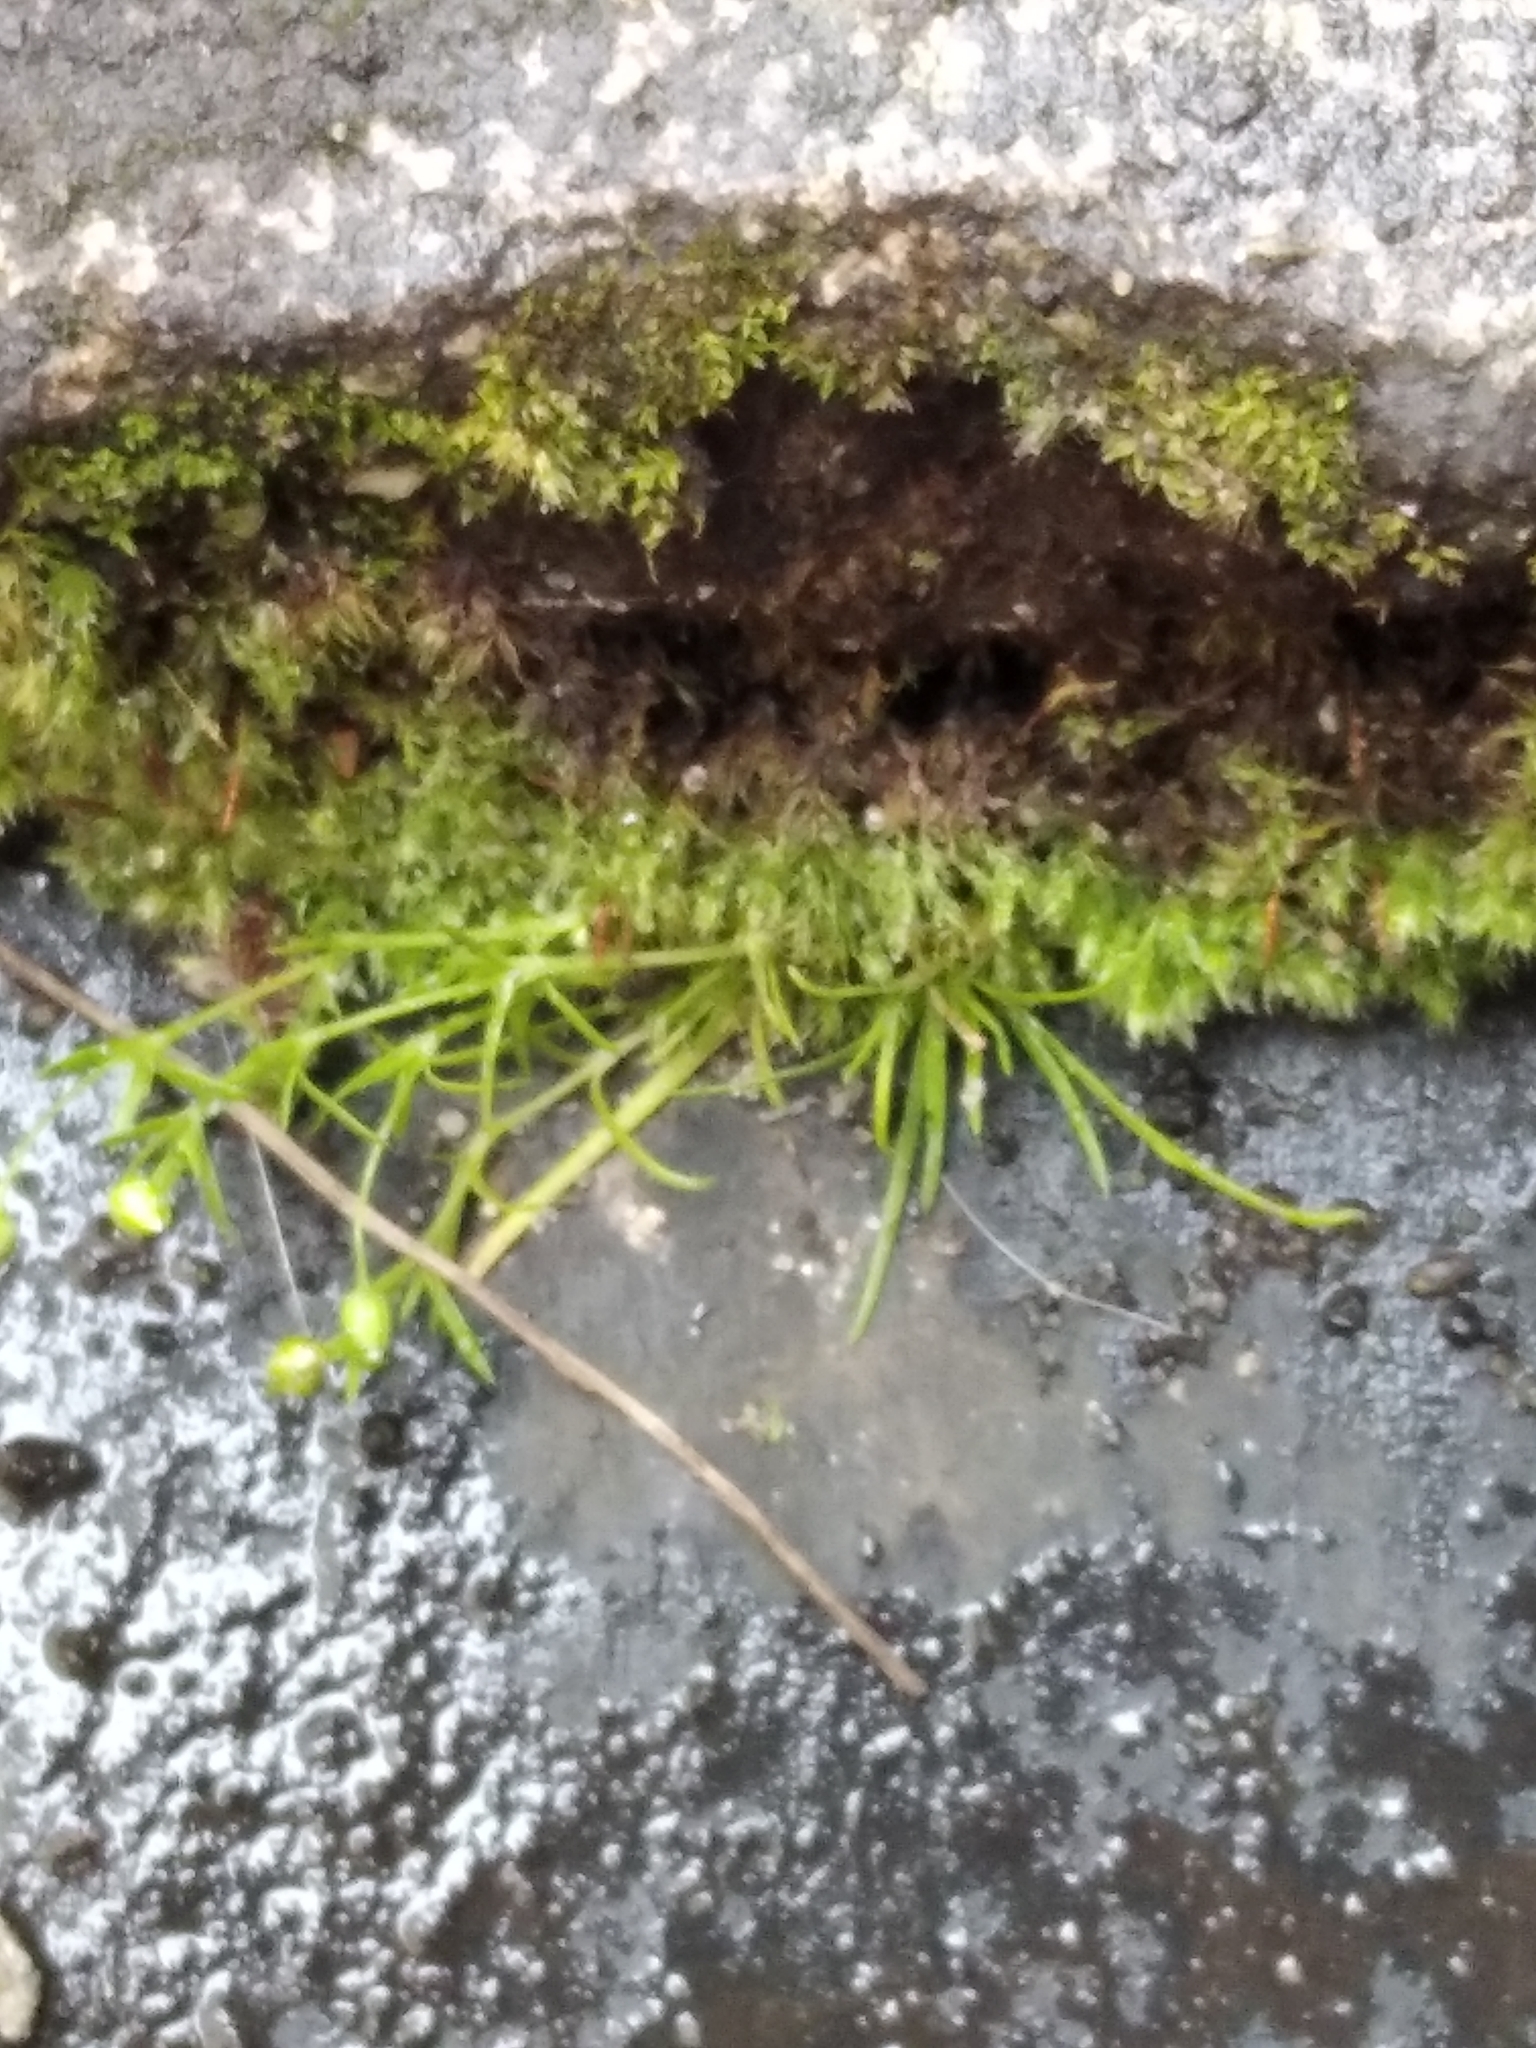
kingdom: Plantae
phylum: Tracheophyta
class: Magnoliopsida
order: Caryophyllales
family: Caryophyllaceae
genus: Sagina
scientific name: Sagina procumbens
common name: Procumbent pearlwort
